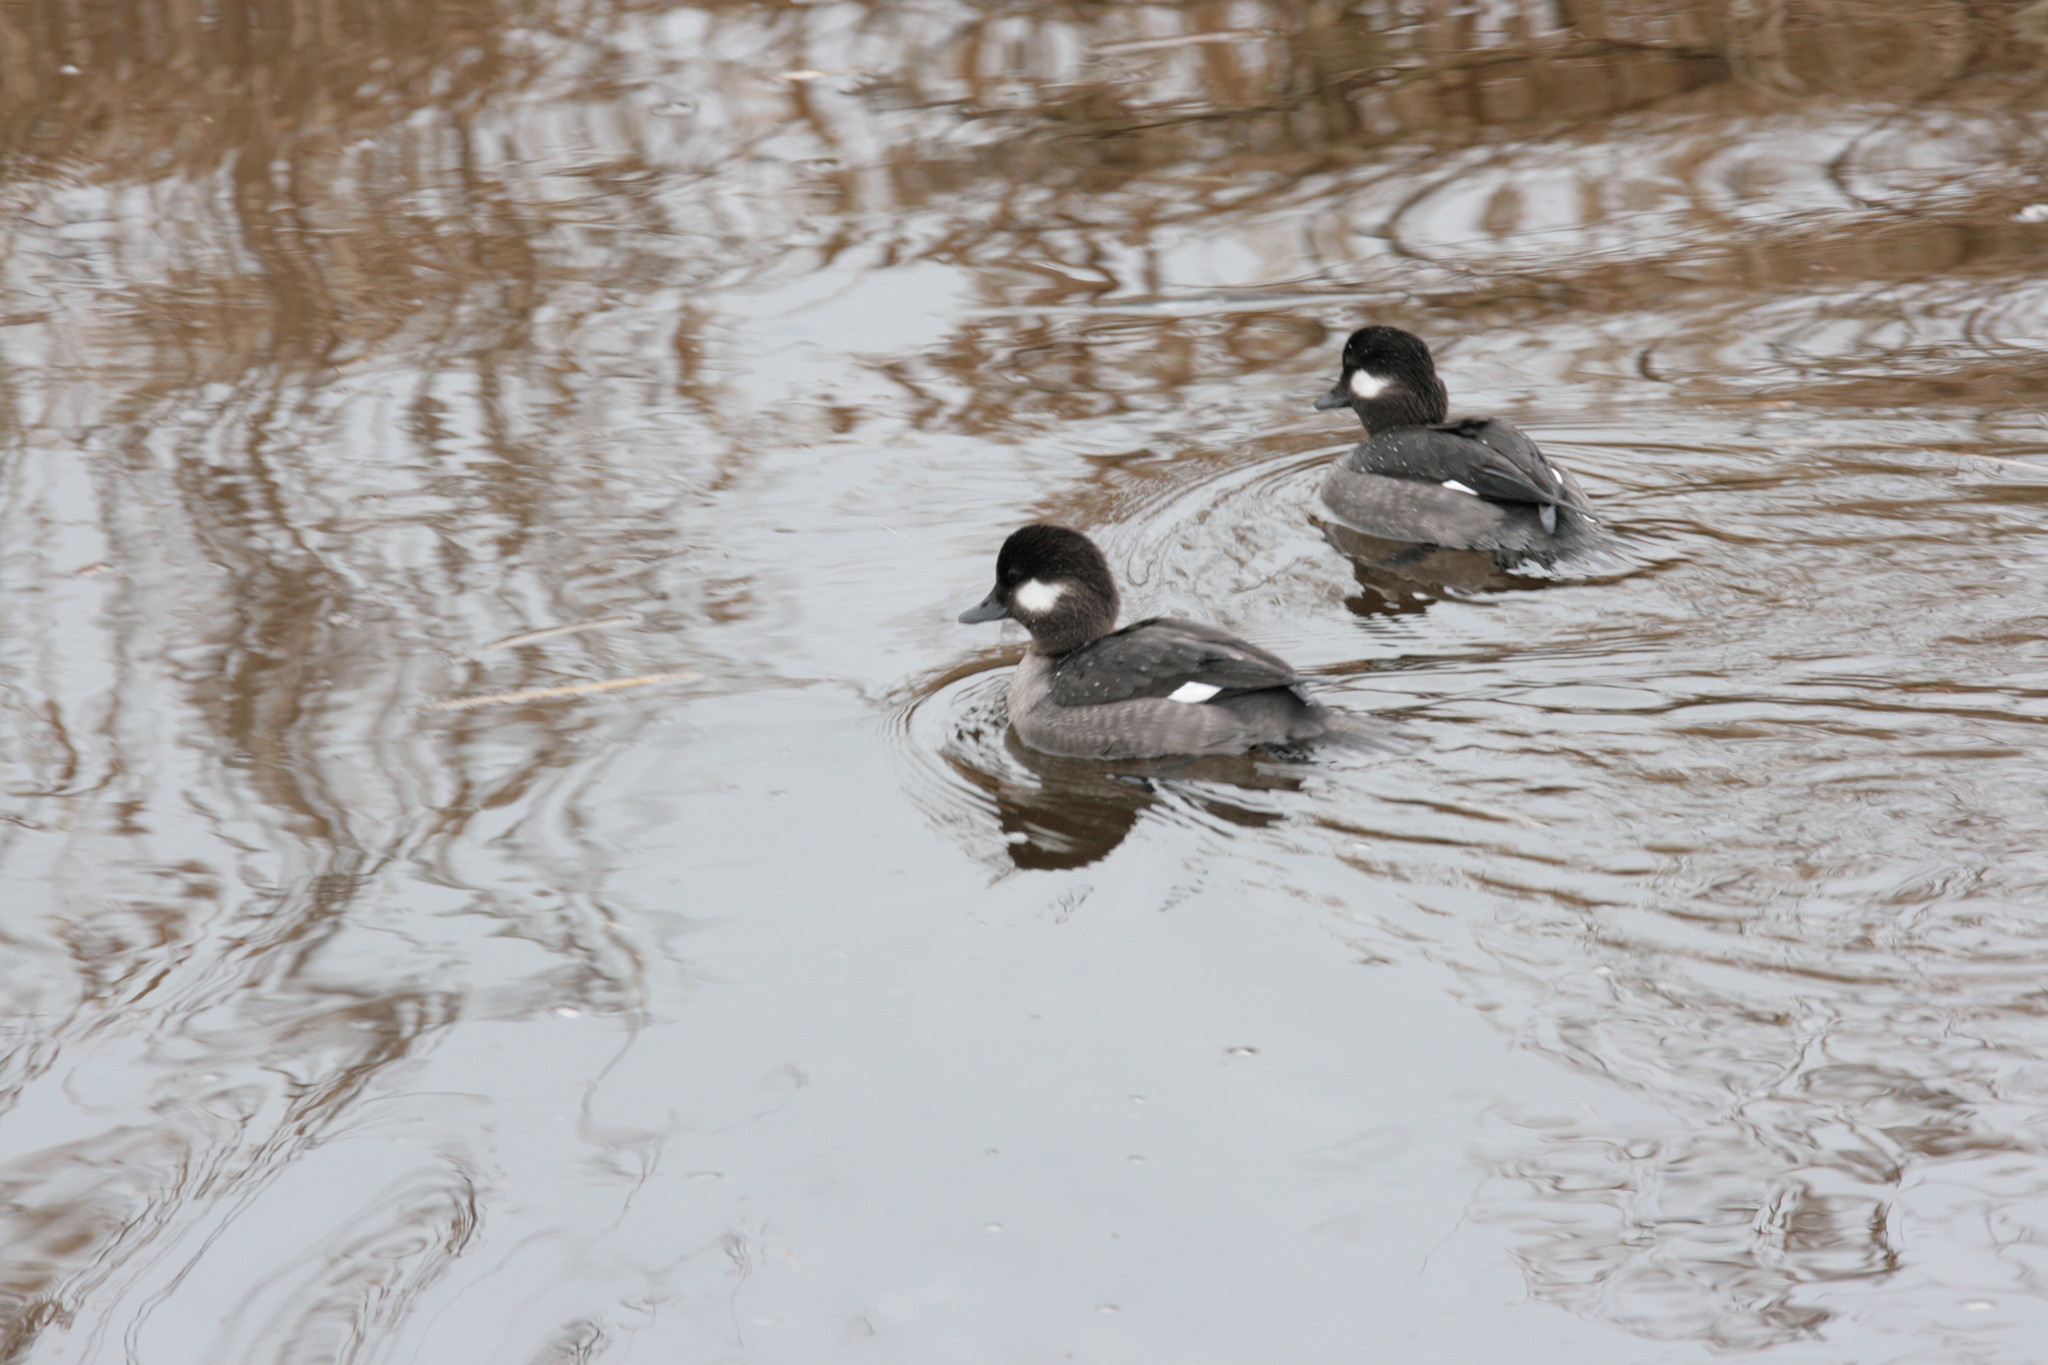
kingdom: Animalia
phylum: Chordata
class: Aves
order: Anseriformes
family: Anatidae
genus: Bucephala
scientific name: Bucephala albeola
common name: Bufflehead
